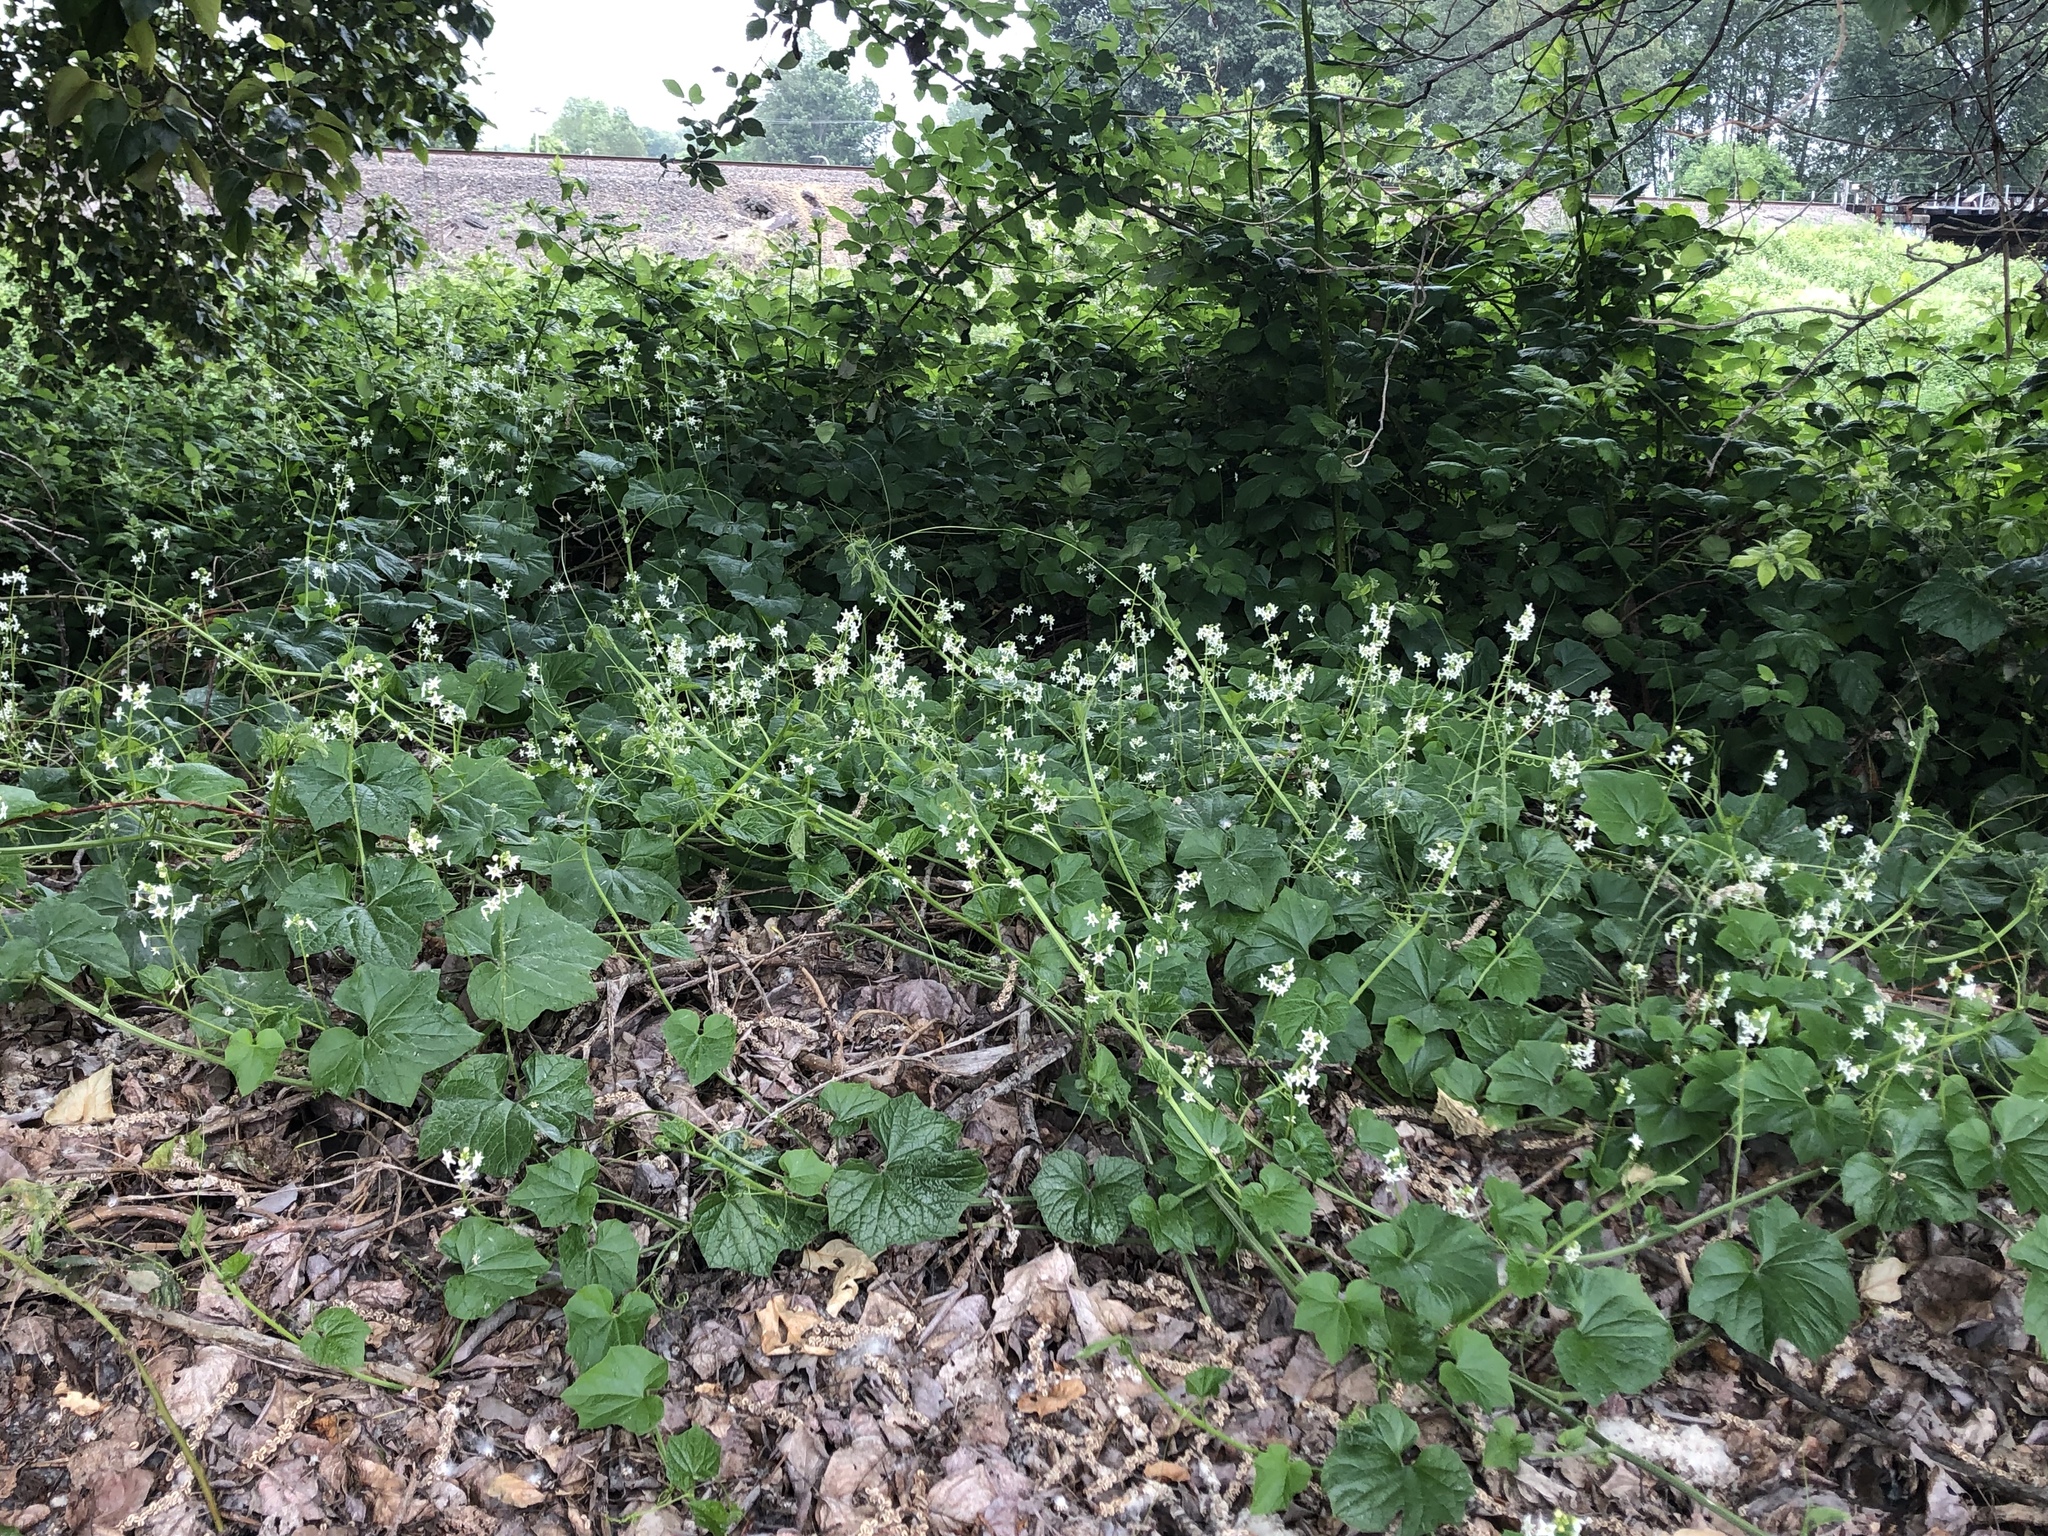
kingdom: Plantae
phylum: Tracheophyta
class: Magnoliopsida
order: Cucurbitales
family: Cucurbitaceae
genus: Marah
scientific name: Marah oregana
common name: Coastal manroot
